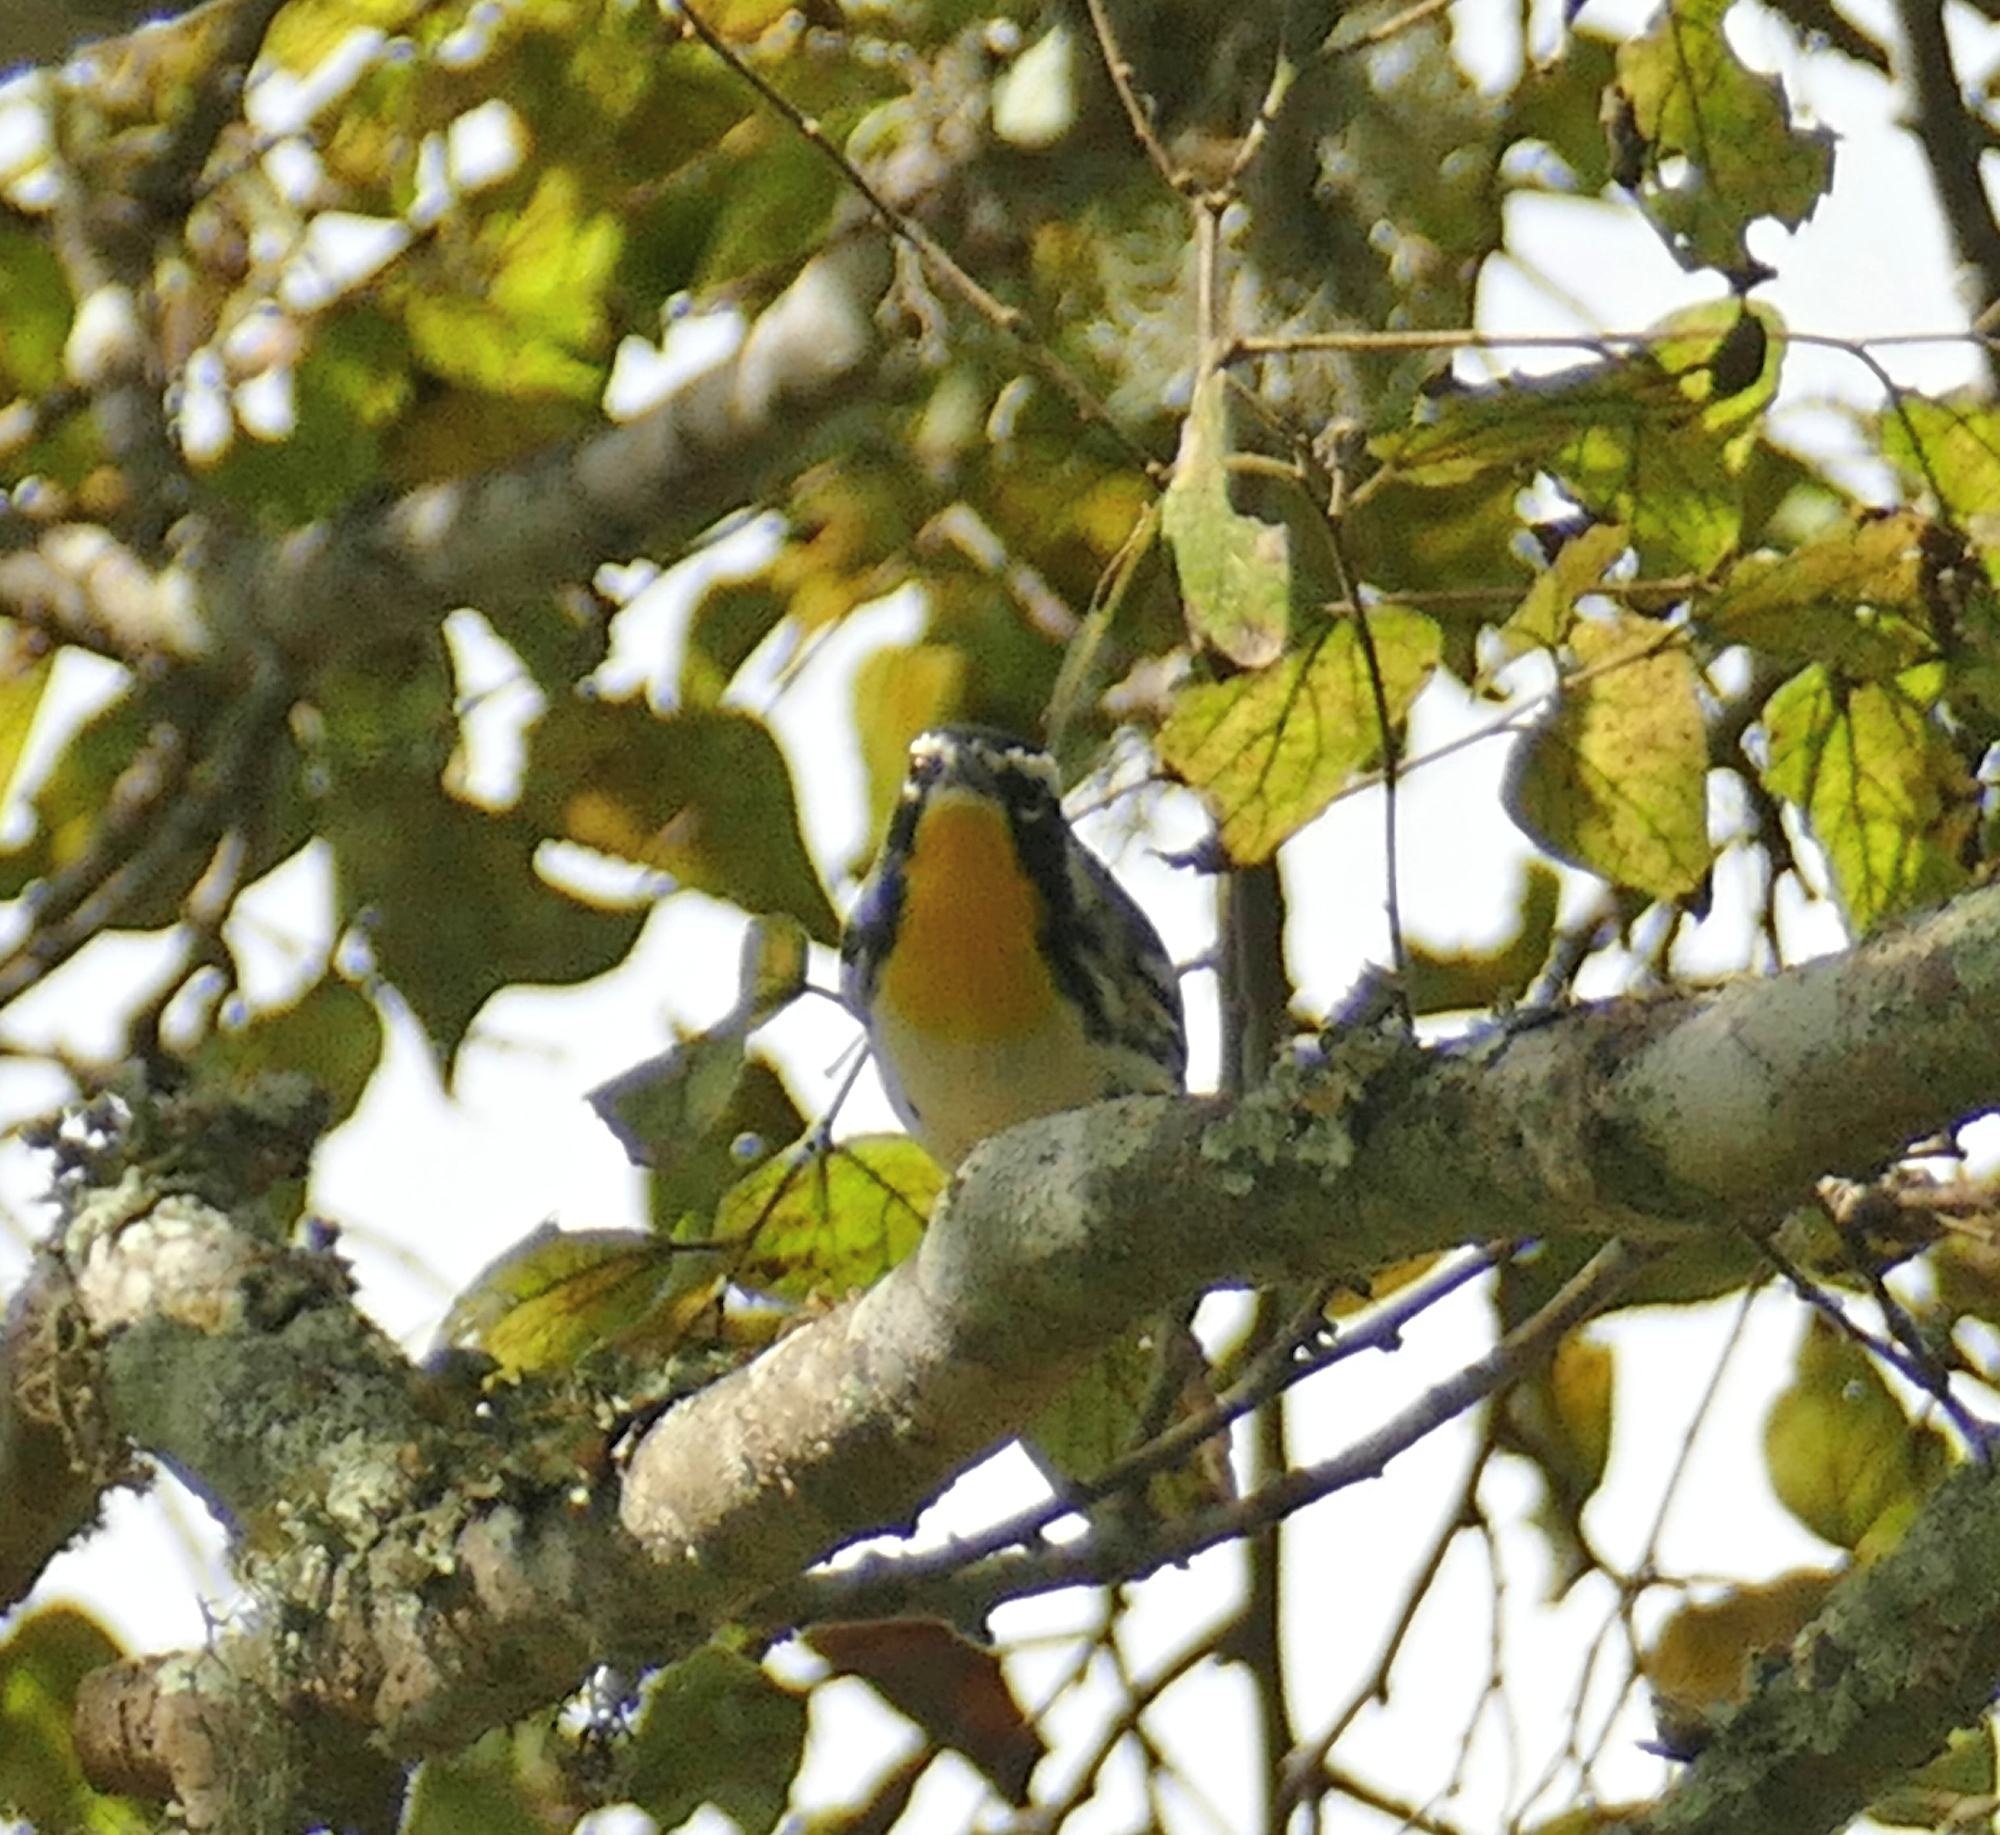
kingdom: Animalia
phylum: Chordata
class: Aves
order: Passeriformes
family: Parulidae
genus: Setophaga
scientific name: Setophaga dominica
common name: Yellow-throated warbler
